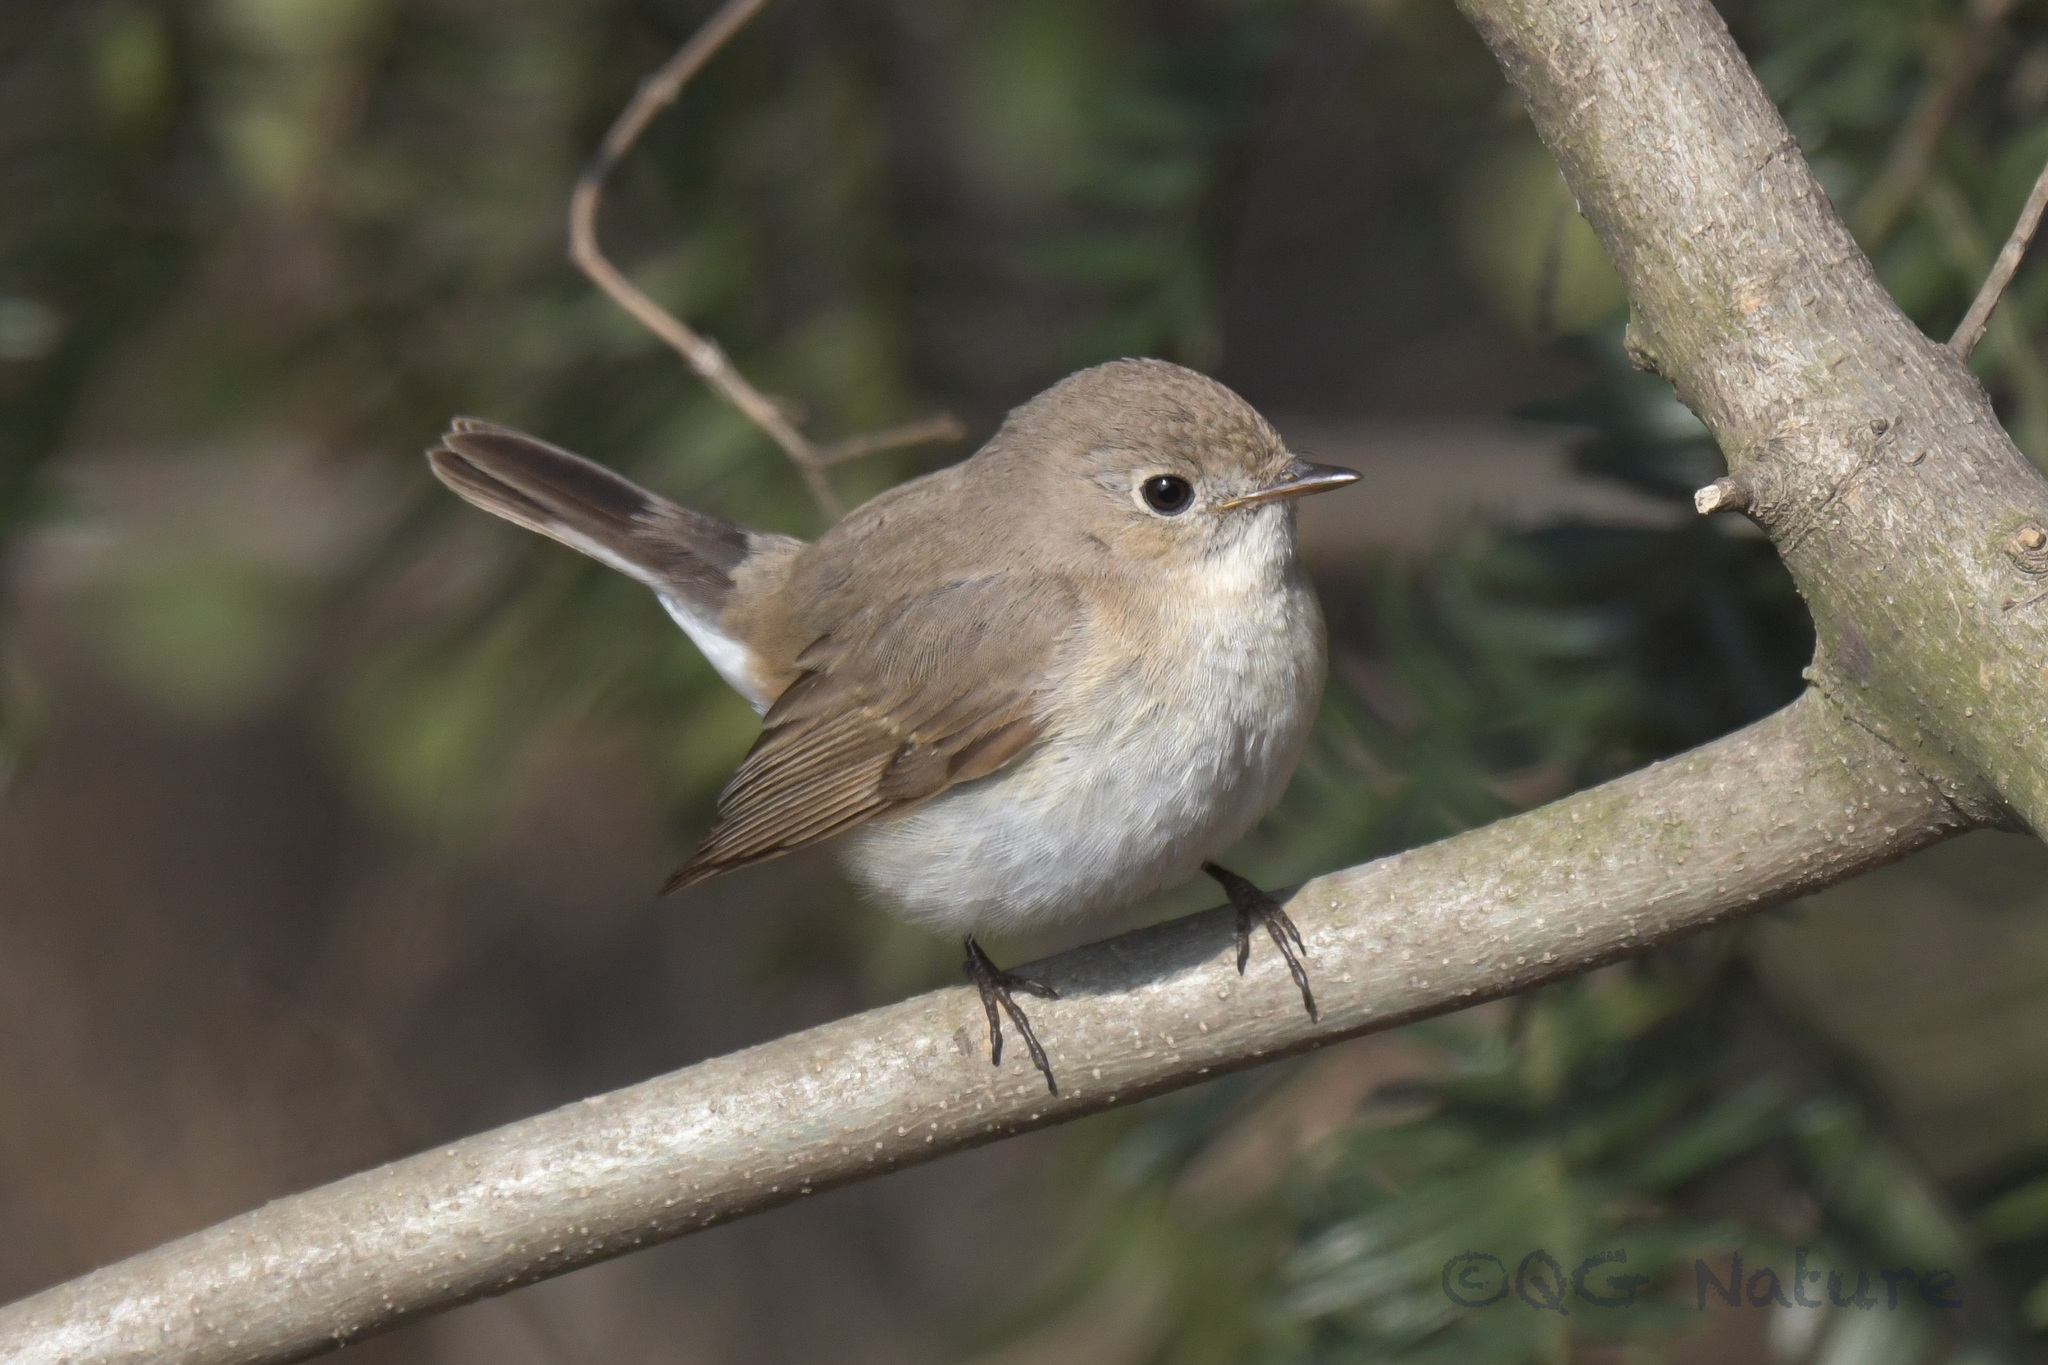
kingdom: Animalia
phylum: Chordata
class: Aves
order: Passeriformes
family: Muscicapidae
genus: Ficedula
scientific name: Ficedula parva
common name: Red-breasted flycatcher
